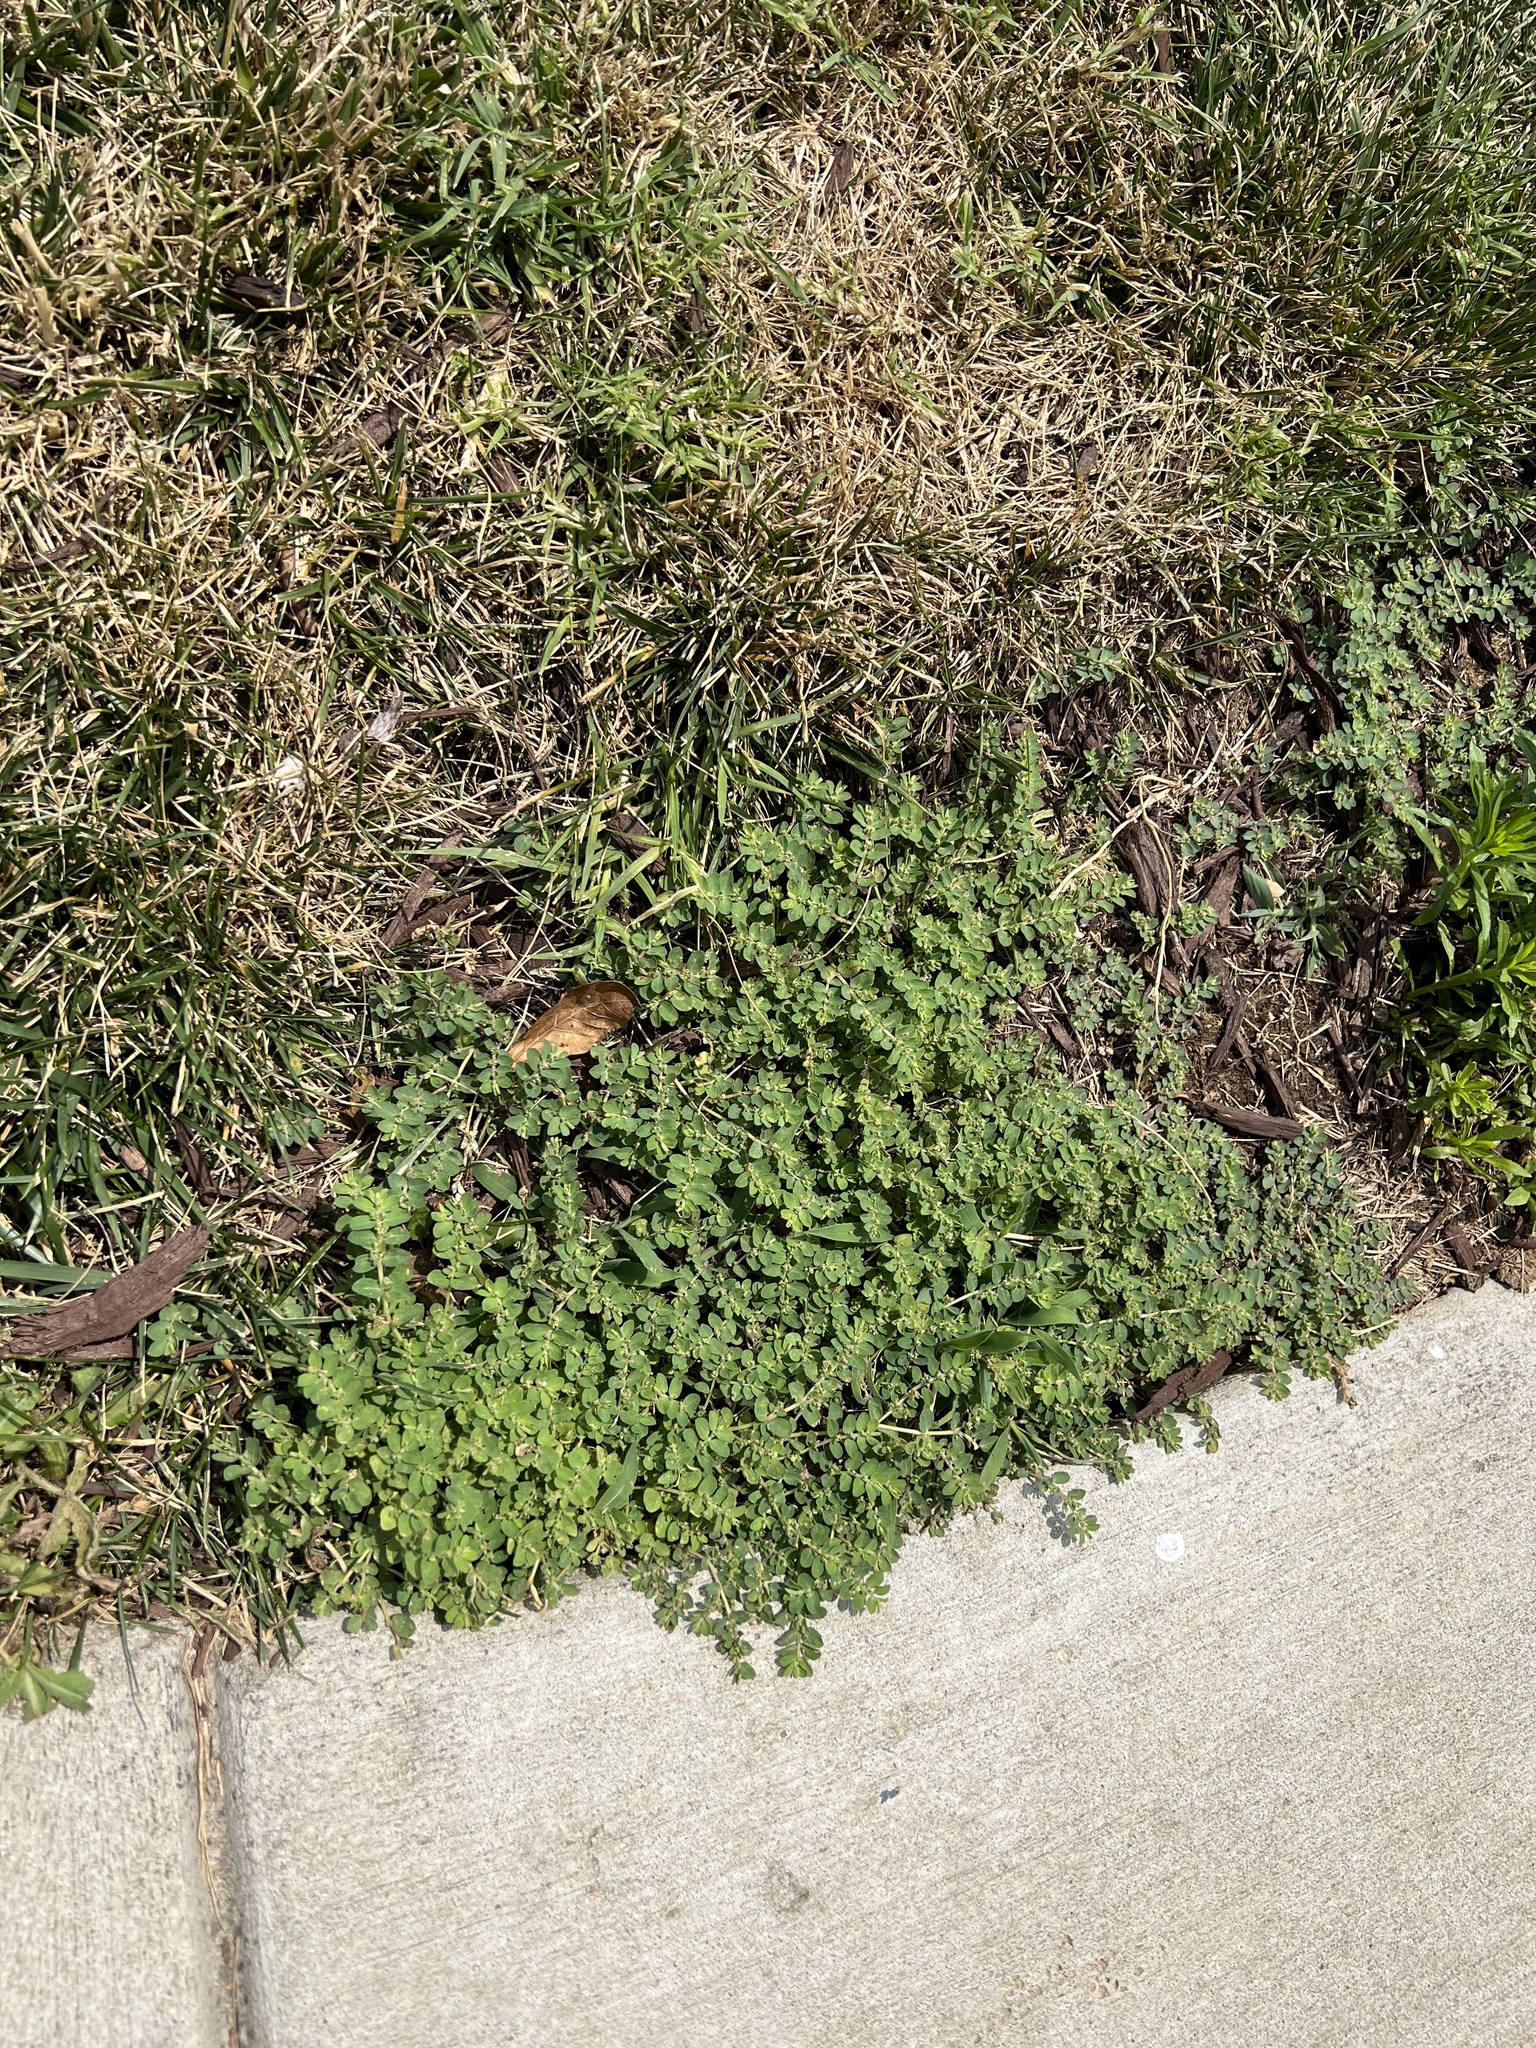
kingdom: Plantae
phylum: Tracheophyta
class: Magnoliopsida
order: Malpighiales
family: Euphorbiaceae
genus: Euphorbia
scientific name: Euphorbia prostrata
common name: Prostrate sandmat
